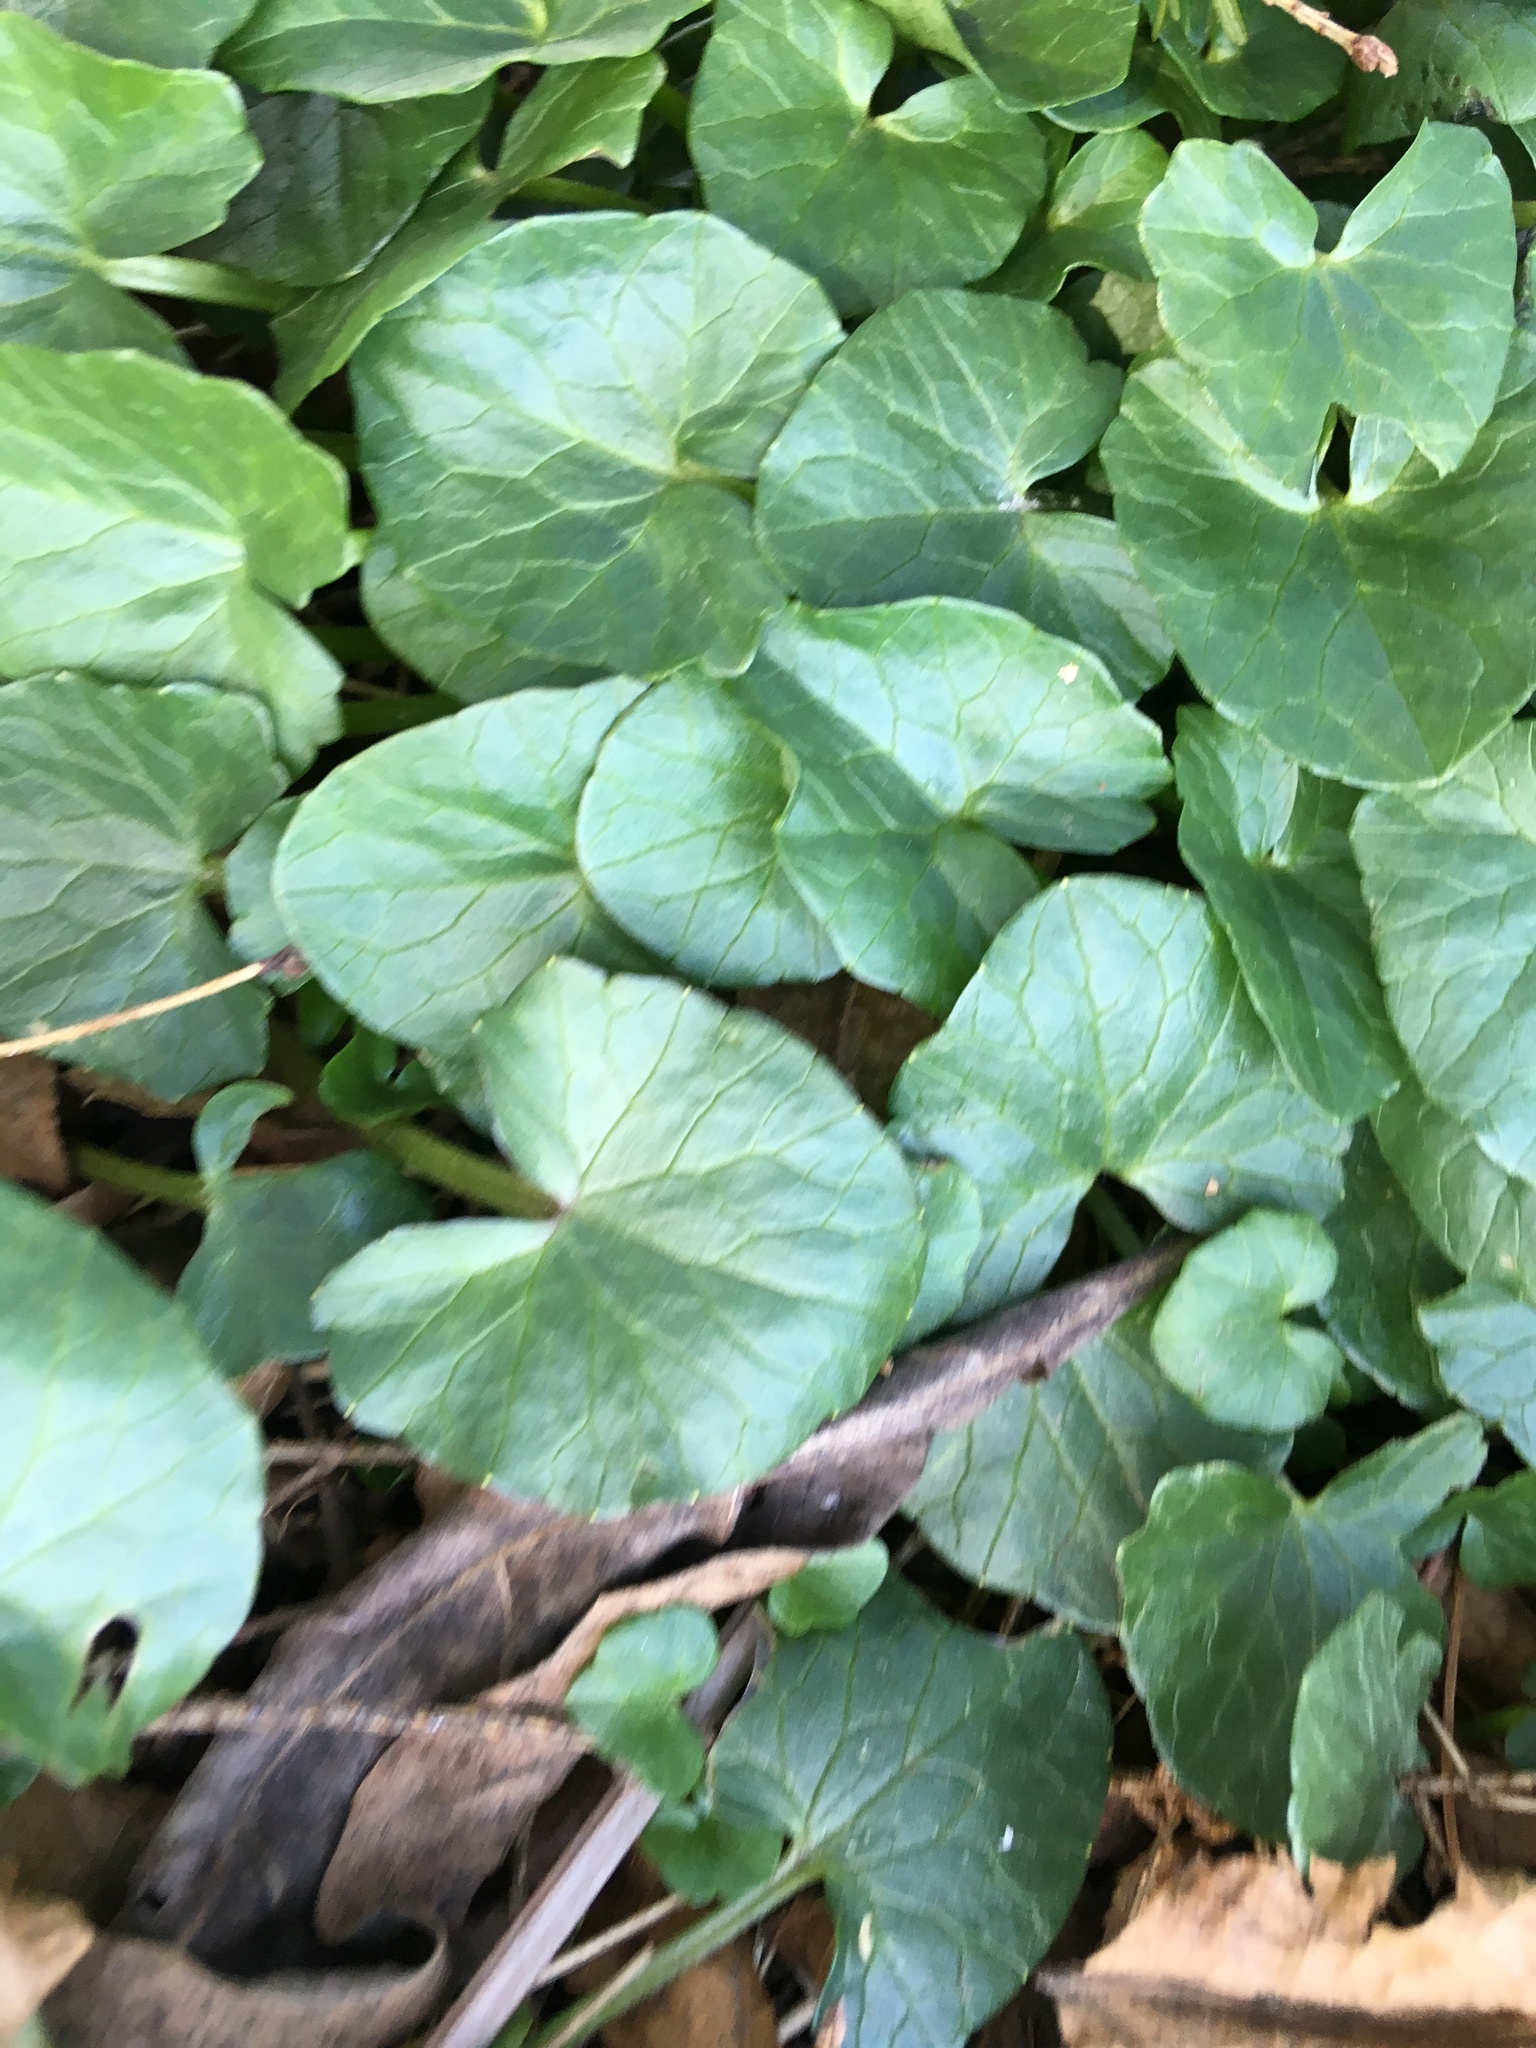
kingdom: Plantae
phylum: Tracheophyta
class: Magnoliopsida
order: Ranunculales
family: Ranunculaceae
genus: Ficaria
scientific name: Ficaria verna
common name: Lesser celandine
